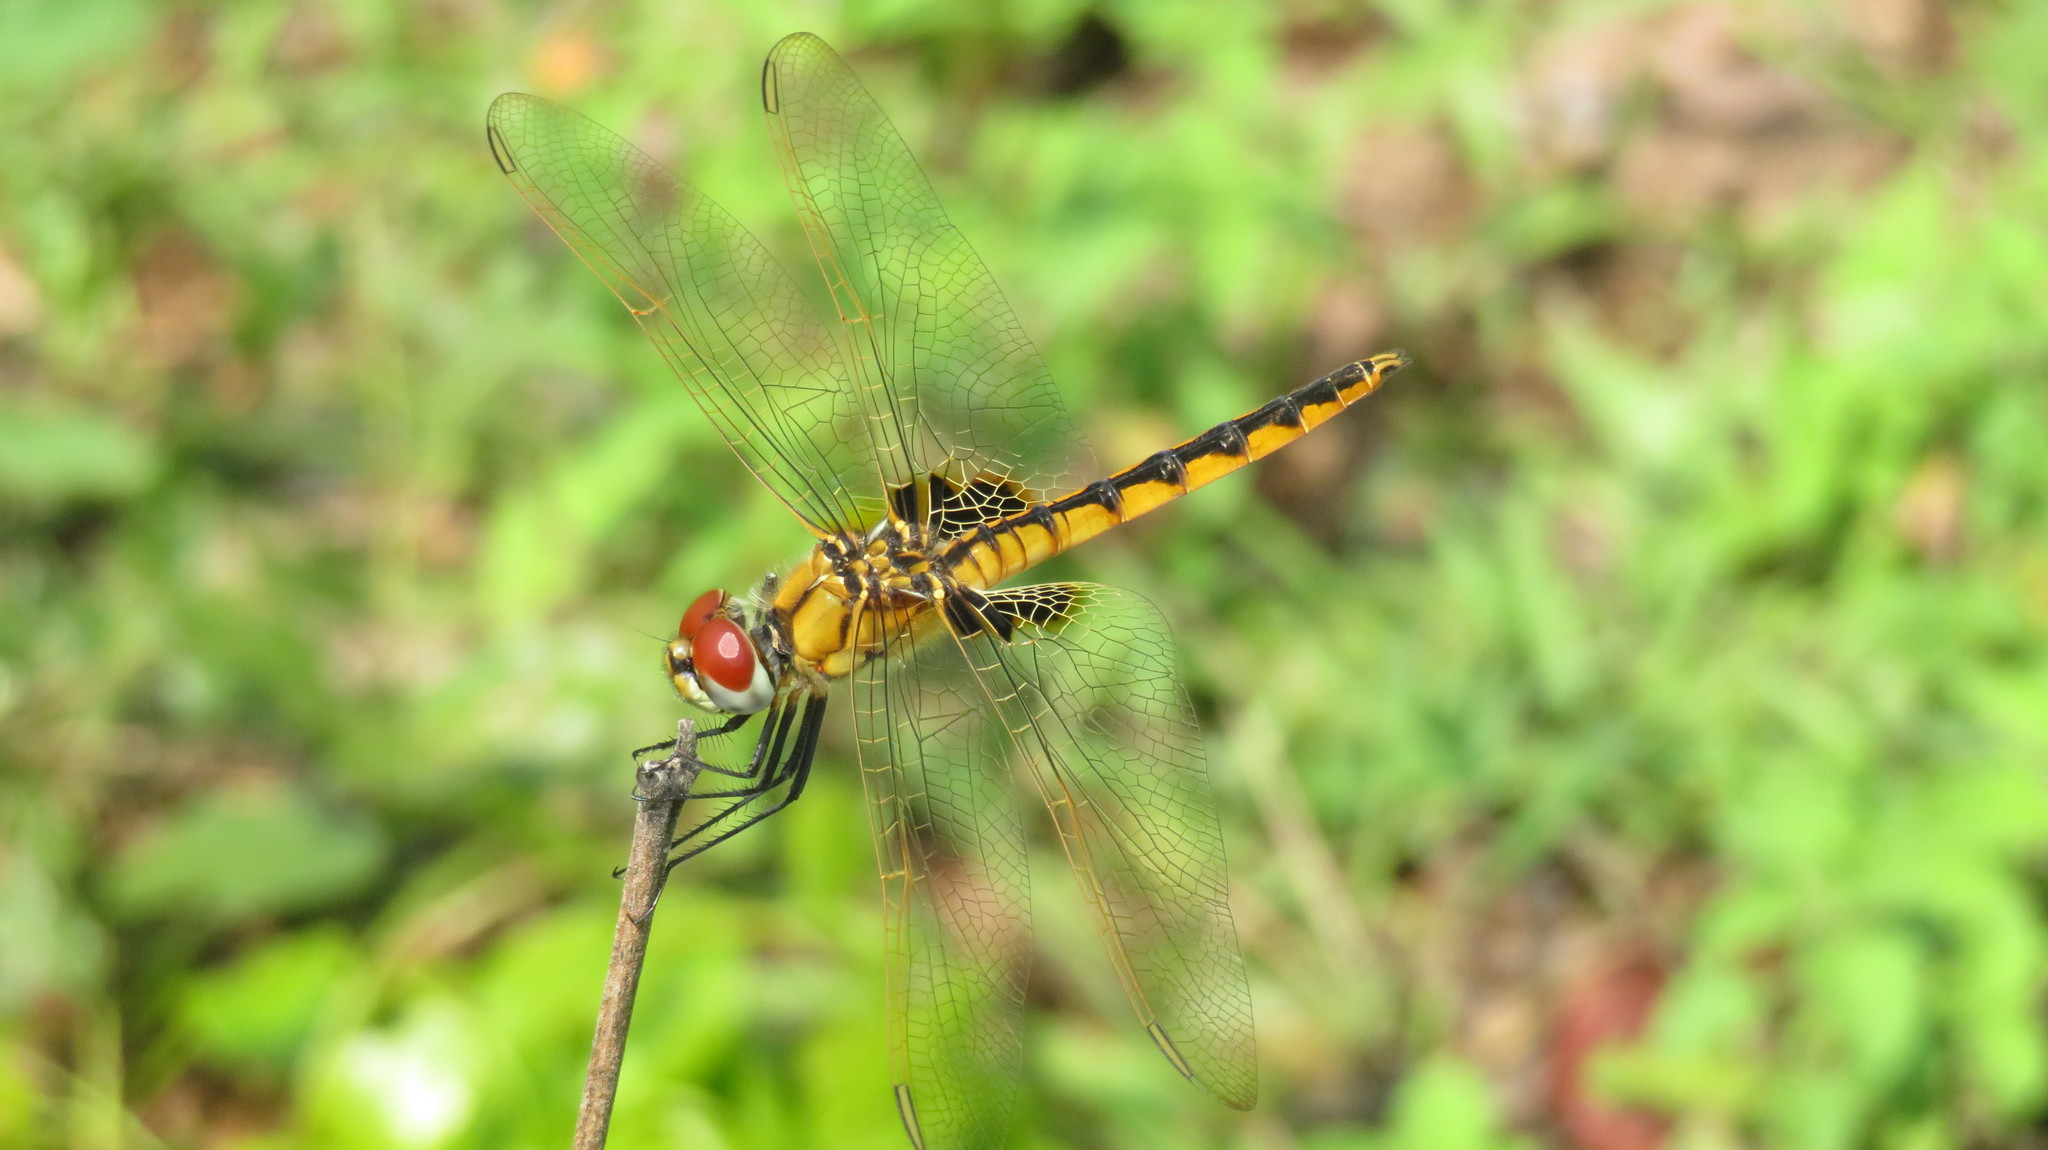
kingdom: Animalia
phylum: Arthropoda
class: Insecta
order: Odonata
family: Libellulidae
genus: Urothemis
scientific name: Urothemis edwardsii
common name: Blue basker
